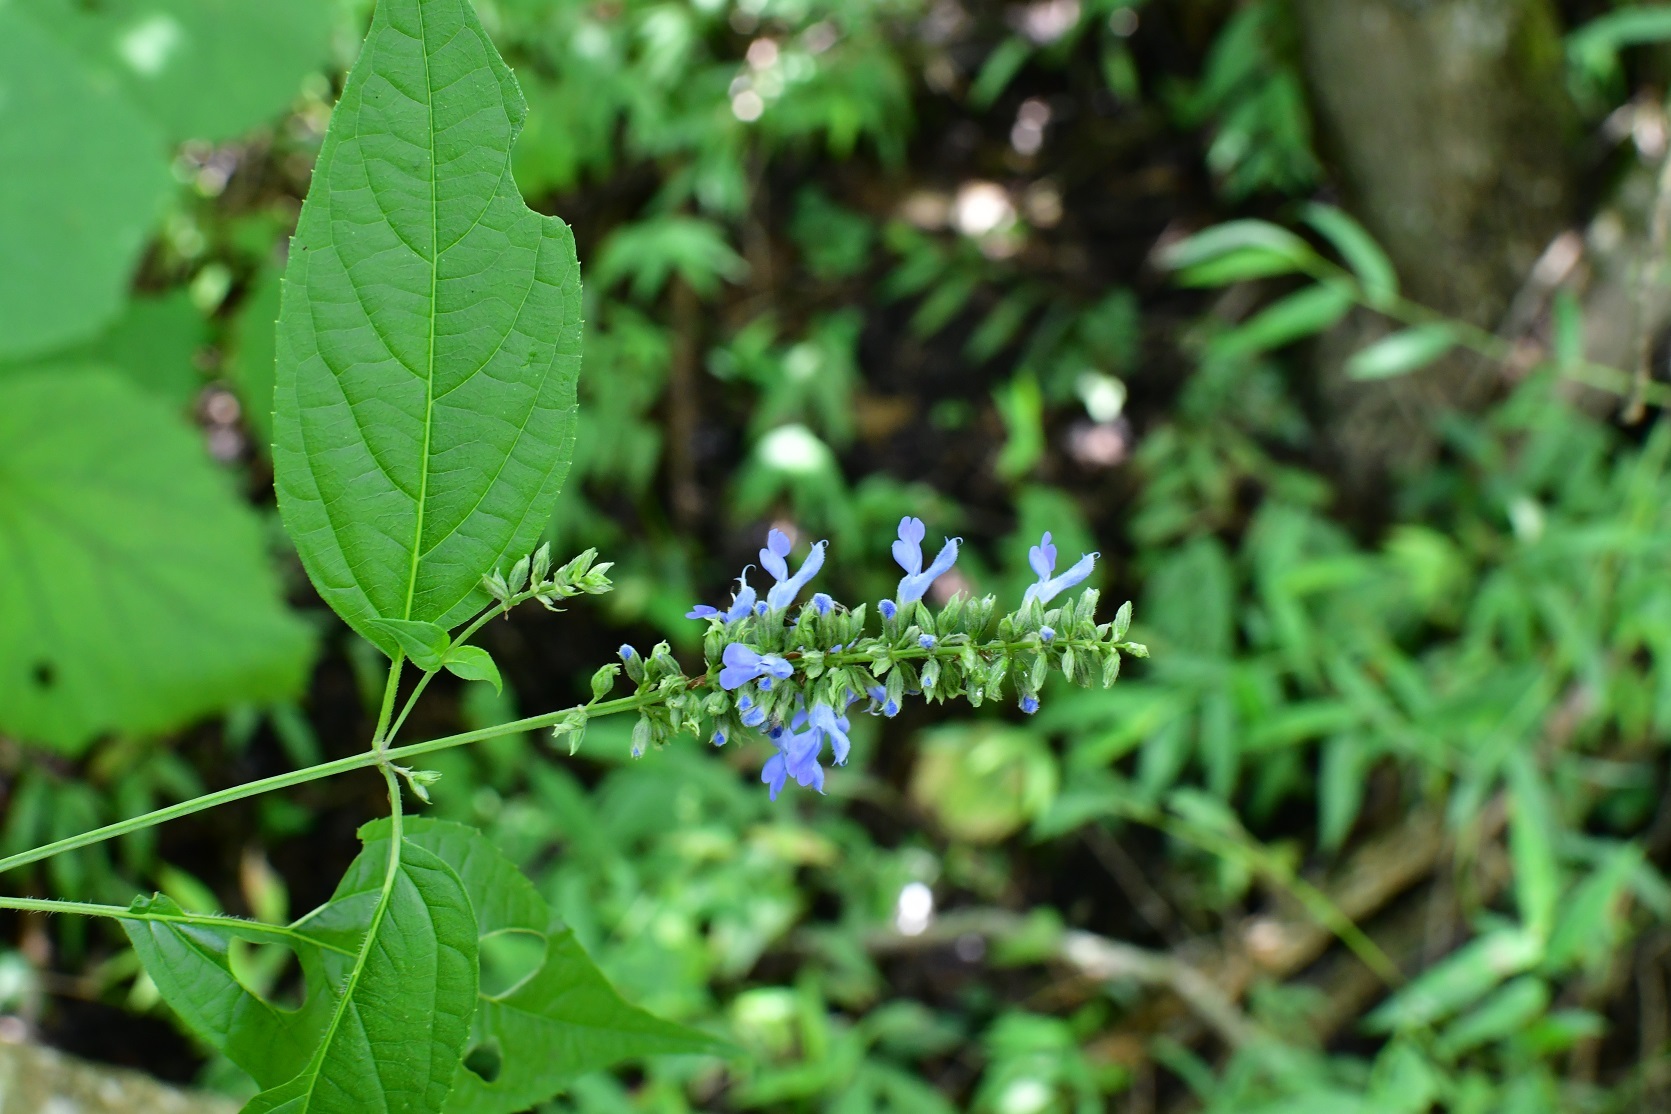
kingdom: Plantae
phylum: Tracheophyta
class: Magnoliopsida
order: Lamiales
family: Lamiaceae
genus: Salvia
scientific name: Salvia connivens
